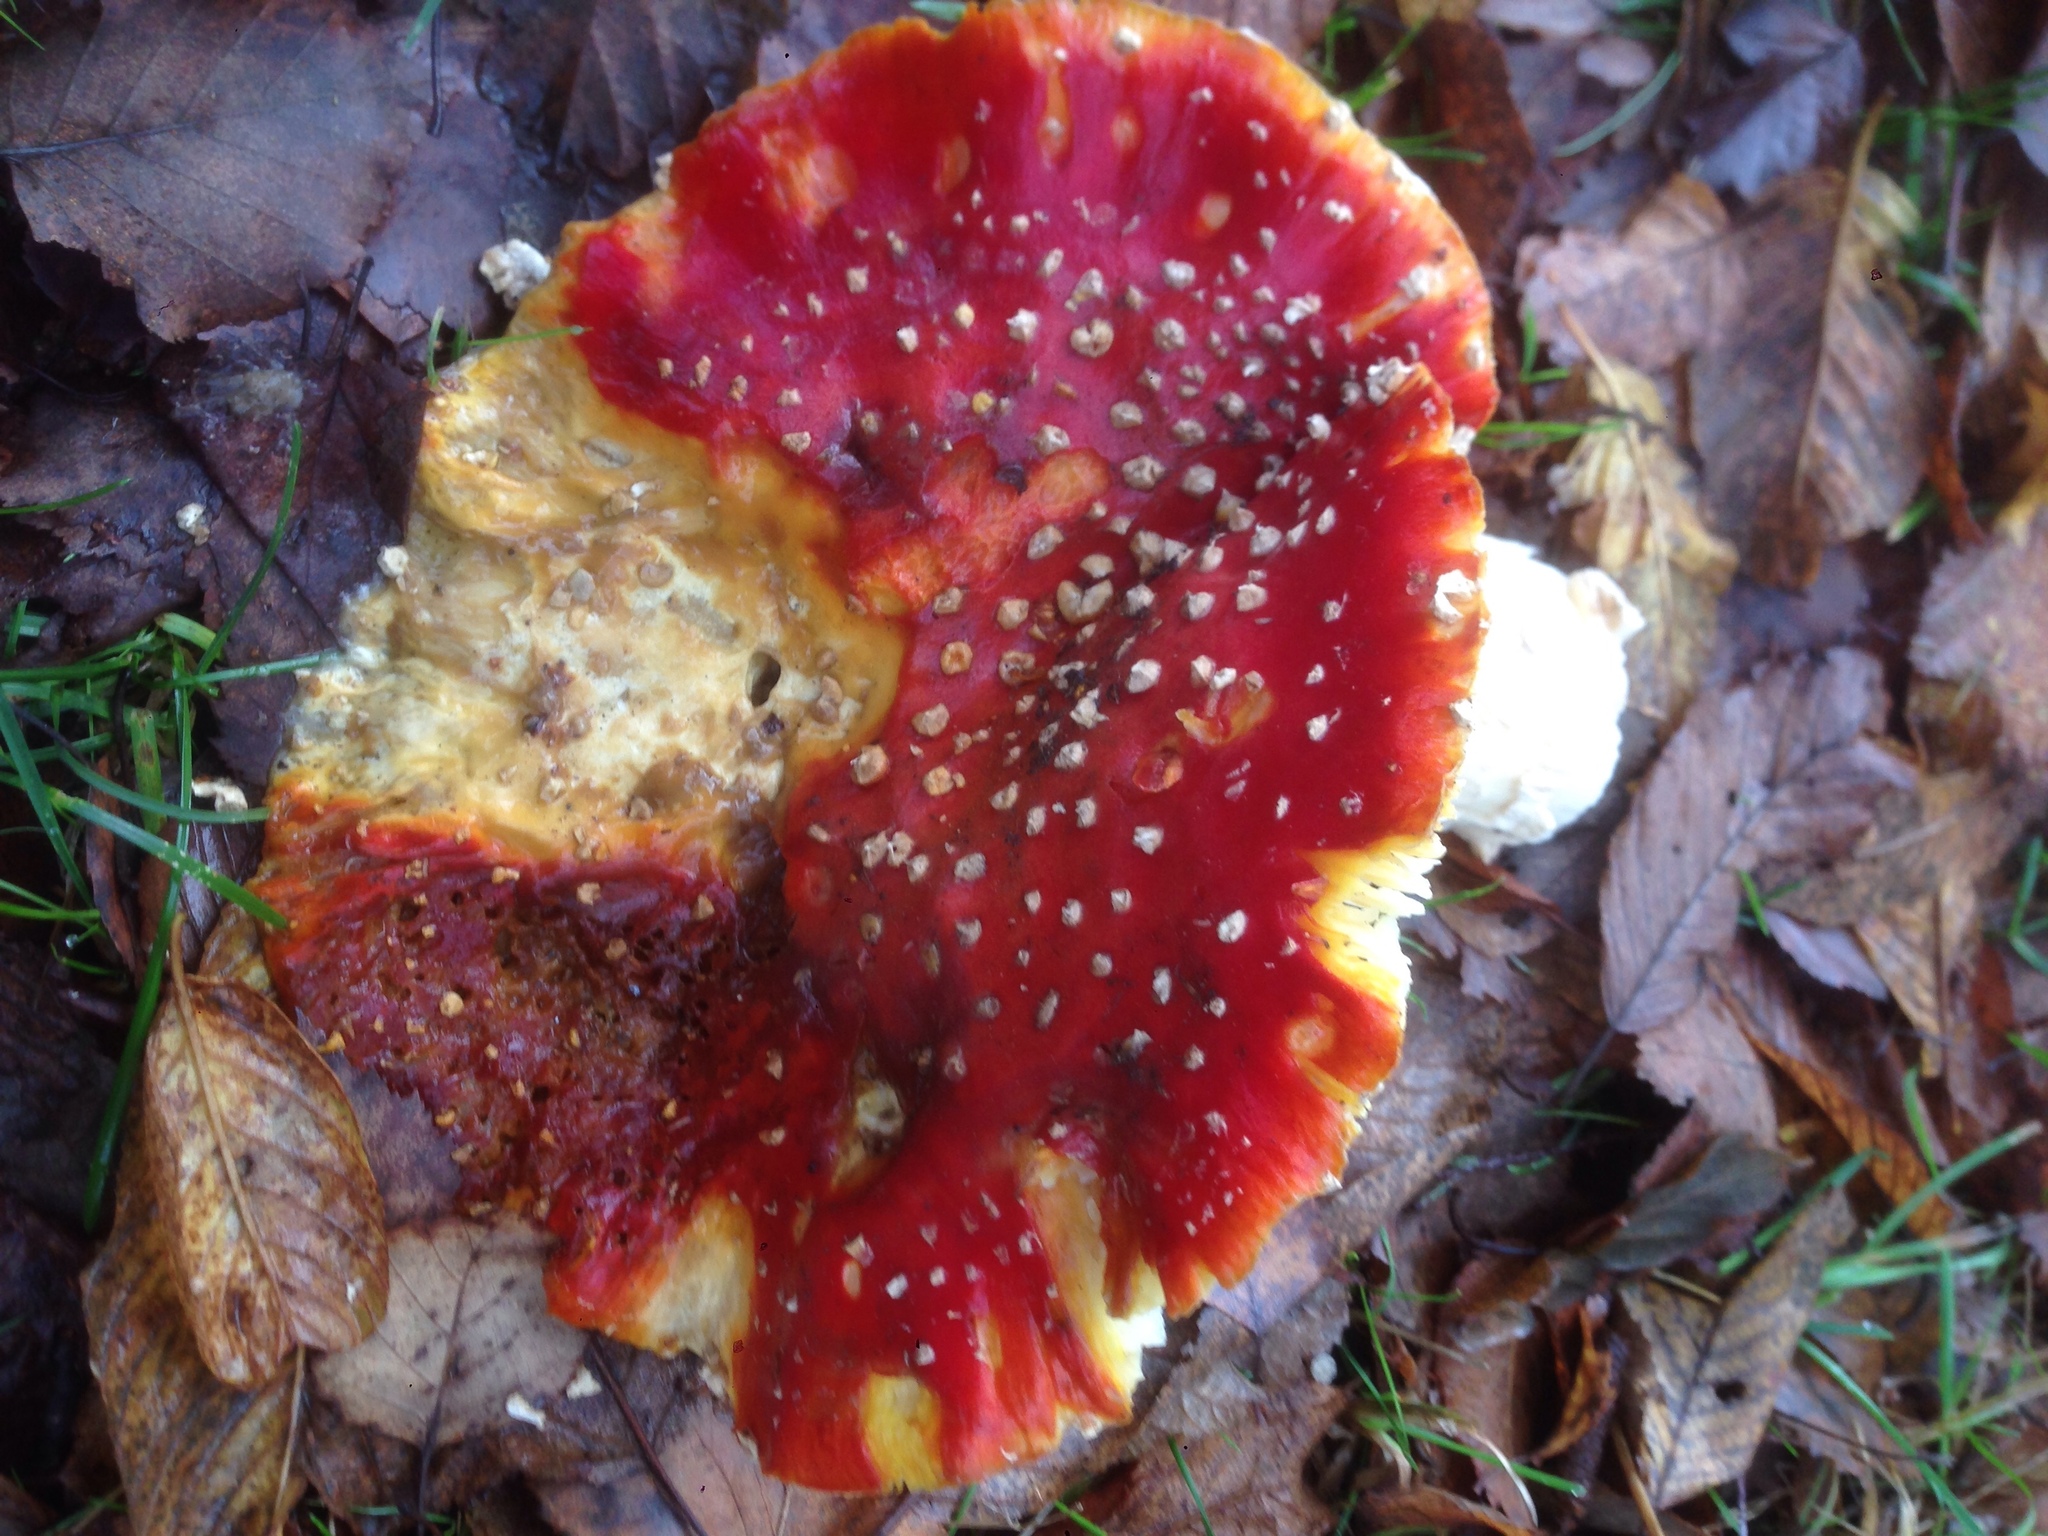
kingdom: Fungi
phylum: Basidiomycota
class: Agaricomycetes
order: Agaricales
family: Amanitaceae
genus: Amanita
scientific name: Amanita muscaria
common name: Fly agaric
